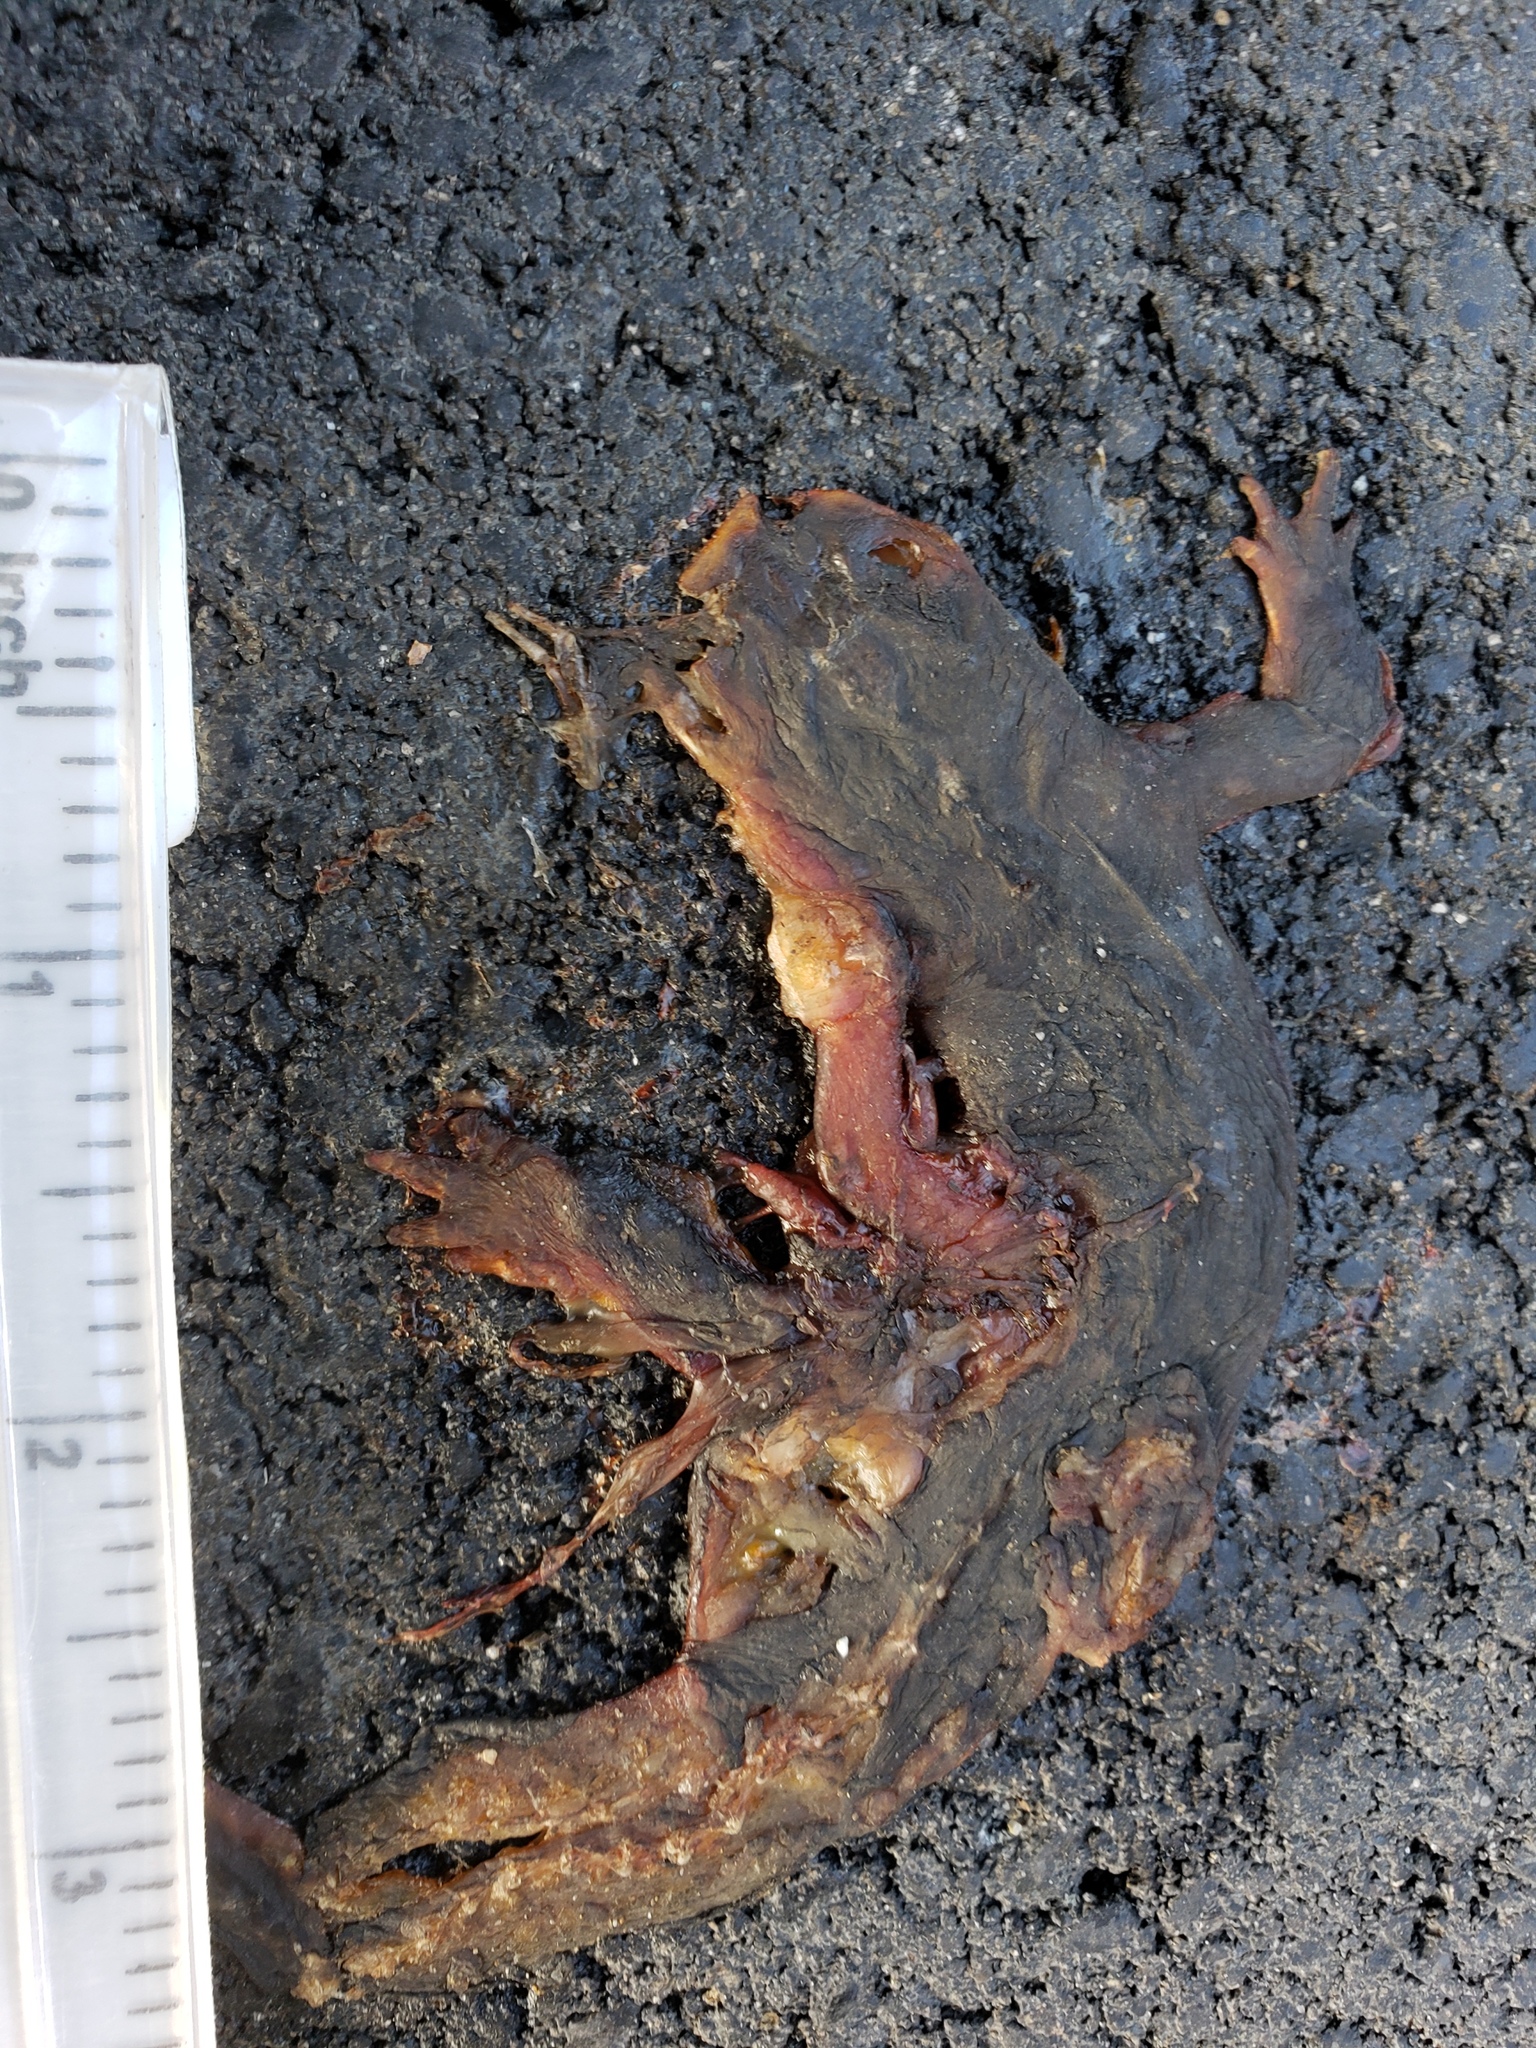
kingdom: Animalia
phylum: Chordata
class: Amphibia
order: Caudata
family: Salamandridae
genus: Taricha
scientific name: Taricha
